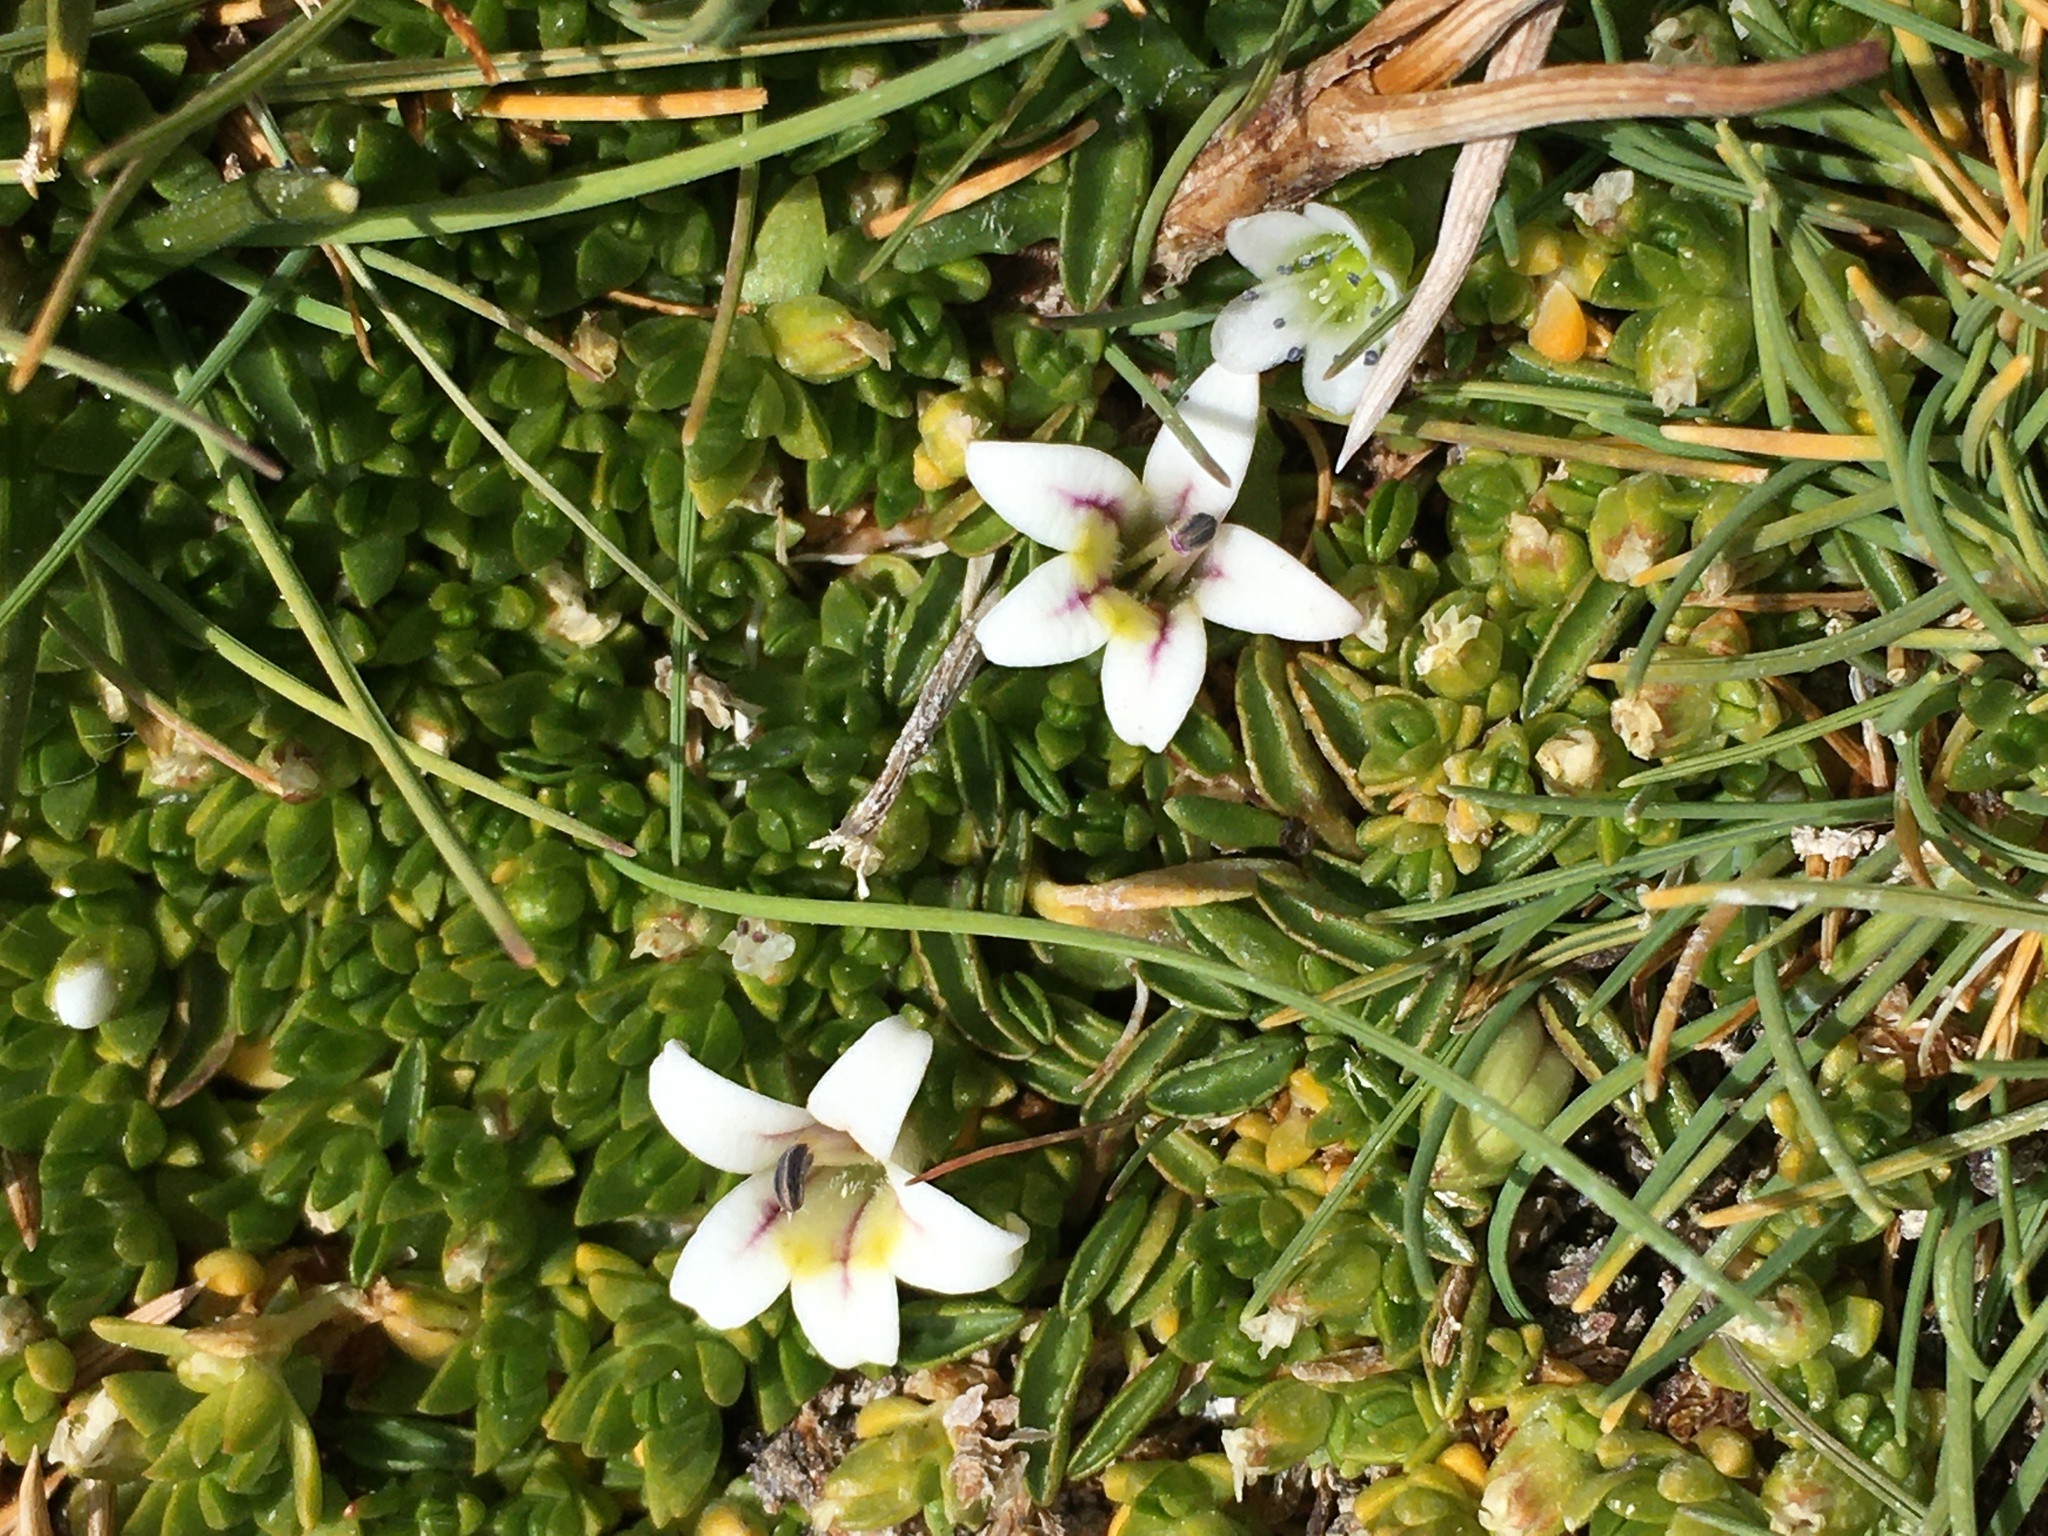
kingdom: Plantae
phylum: Tracheophyta
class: Magnoliopsida
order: Asterales
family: Campanulaceae
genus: Lobelia
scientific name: Lobelia oligophylla
